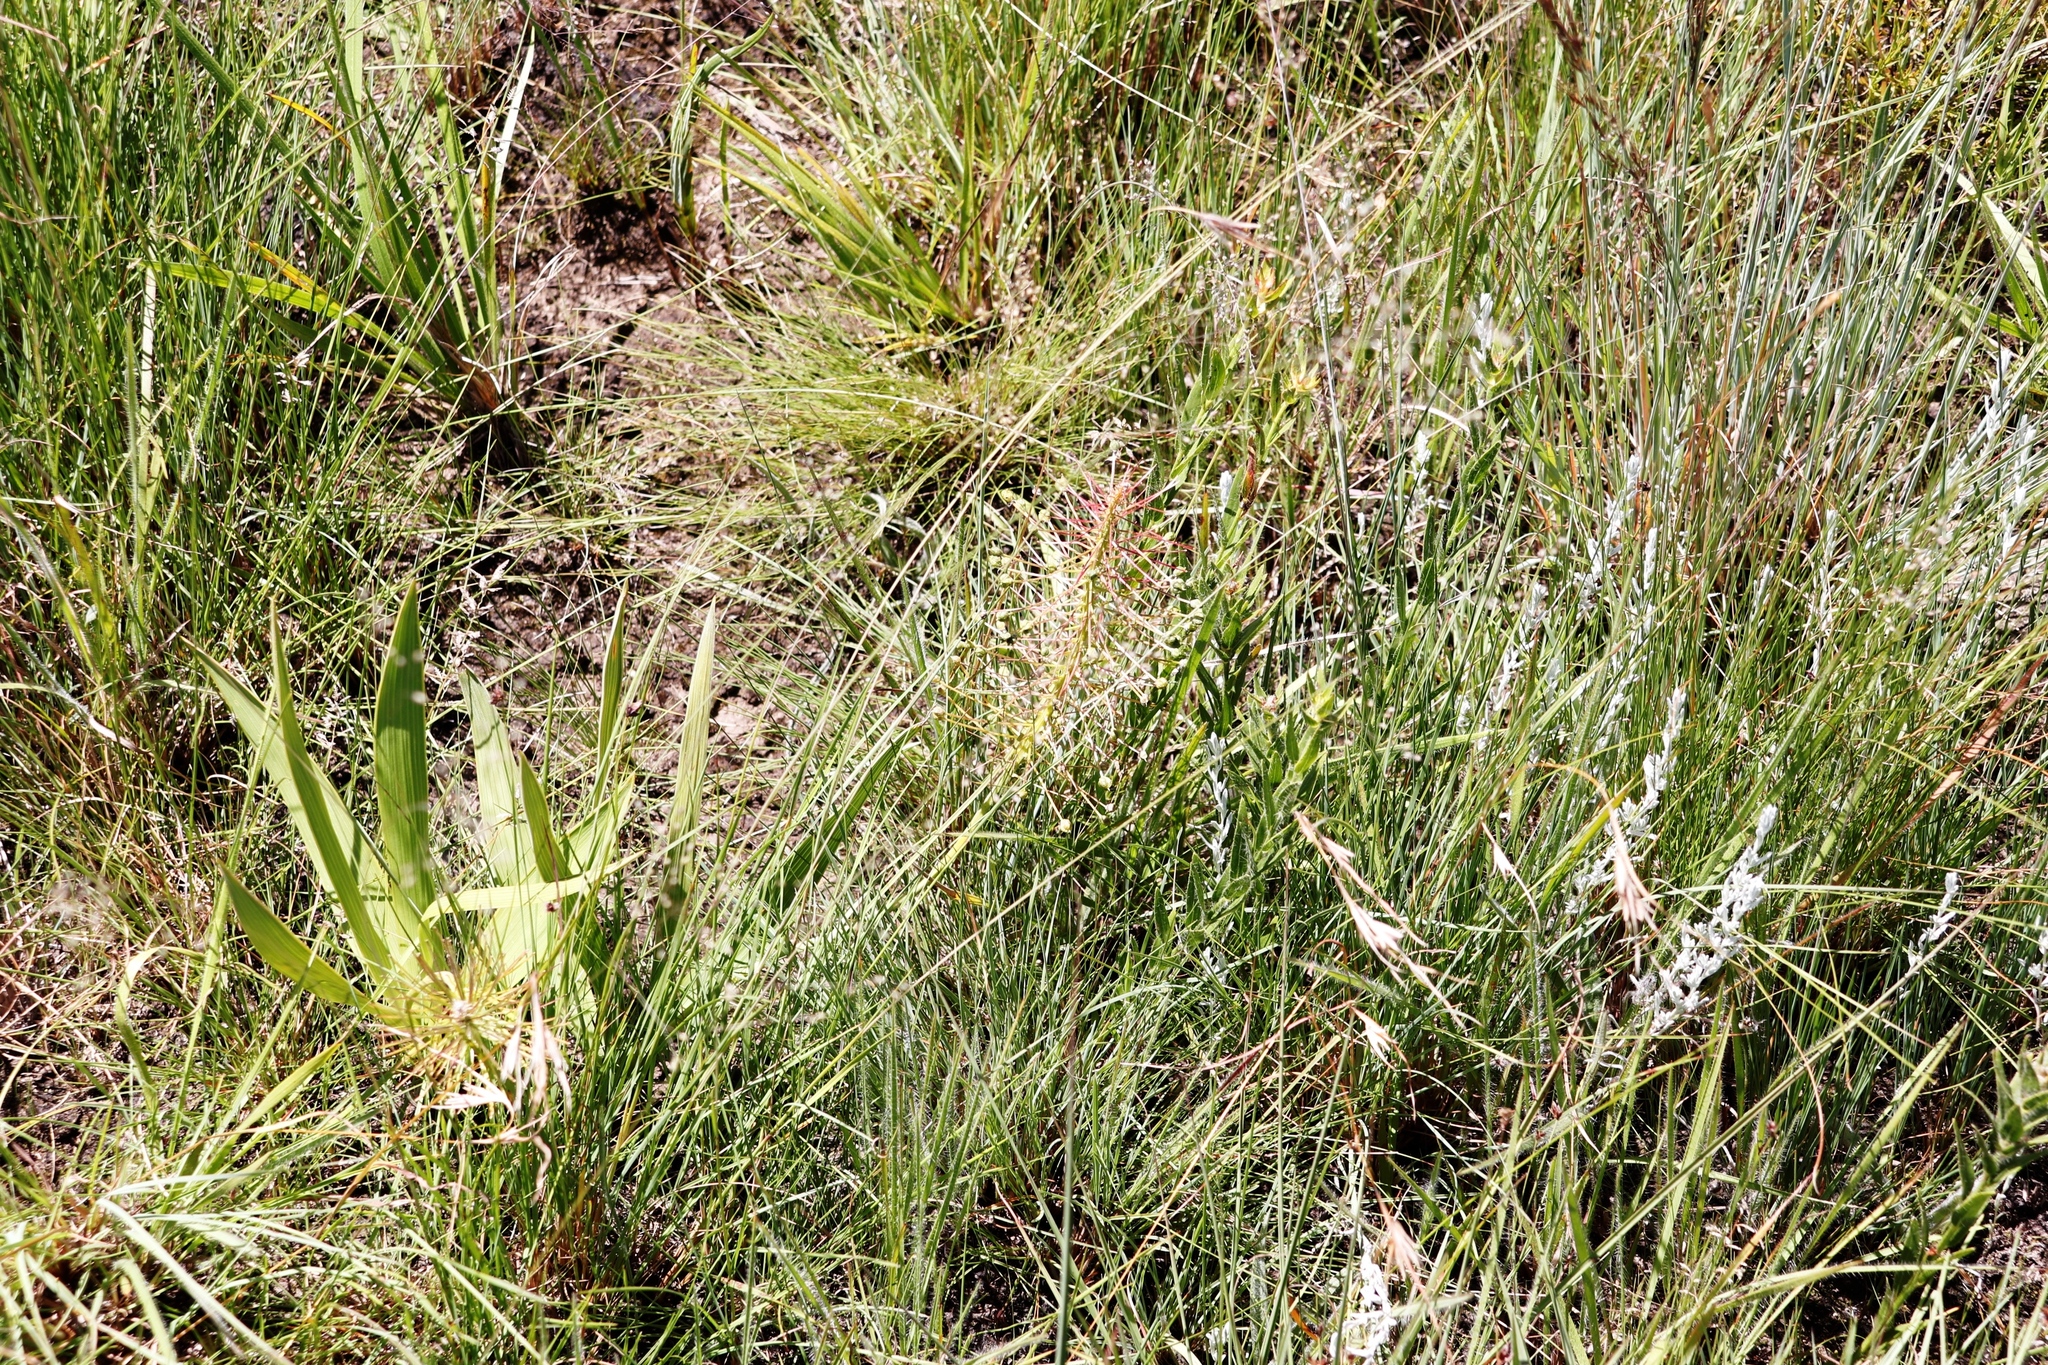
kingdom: Plantae
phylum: Tracheophyta
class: Liliopsida
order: Asparagales
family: Asparagaceae
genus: Schizocarphus
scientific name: Schizocarphus nervosus
